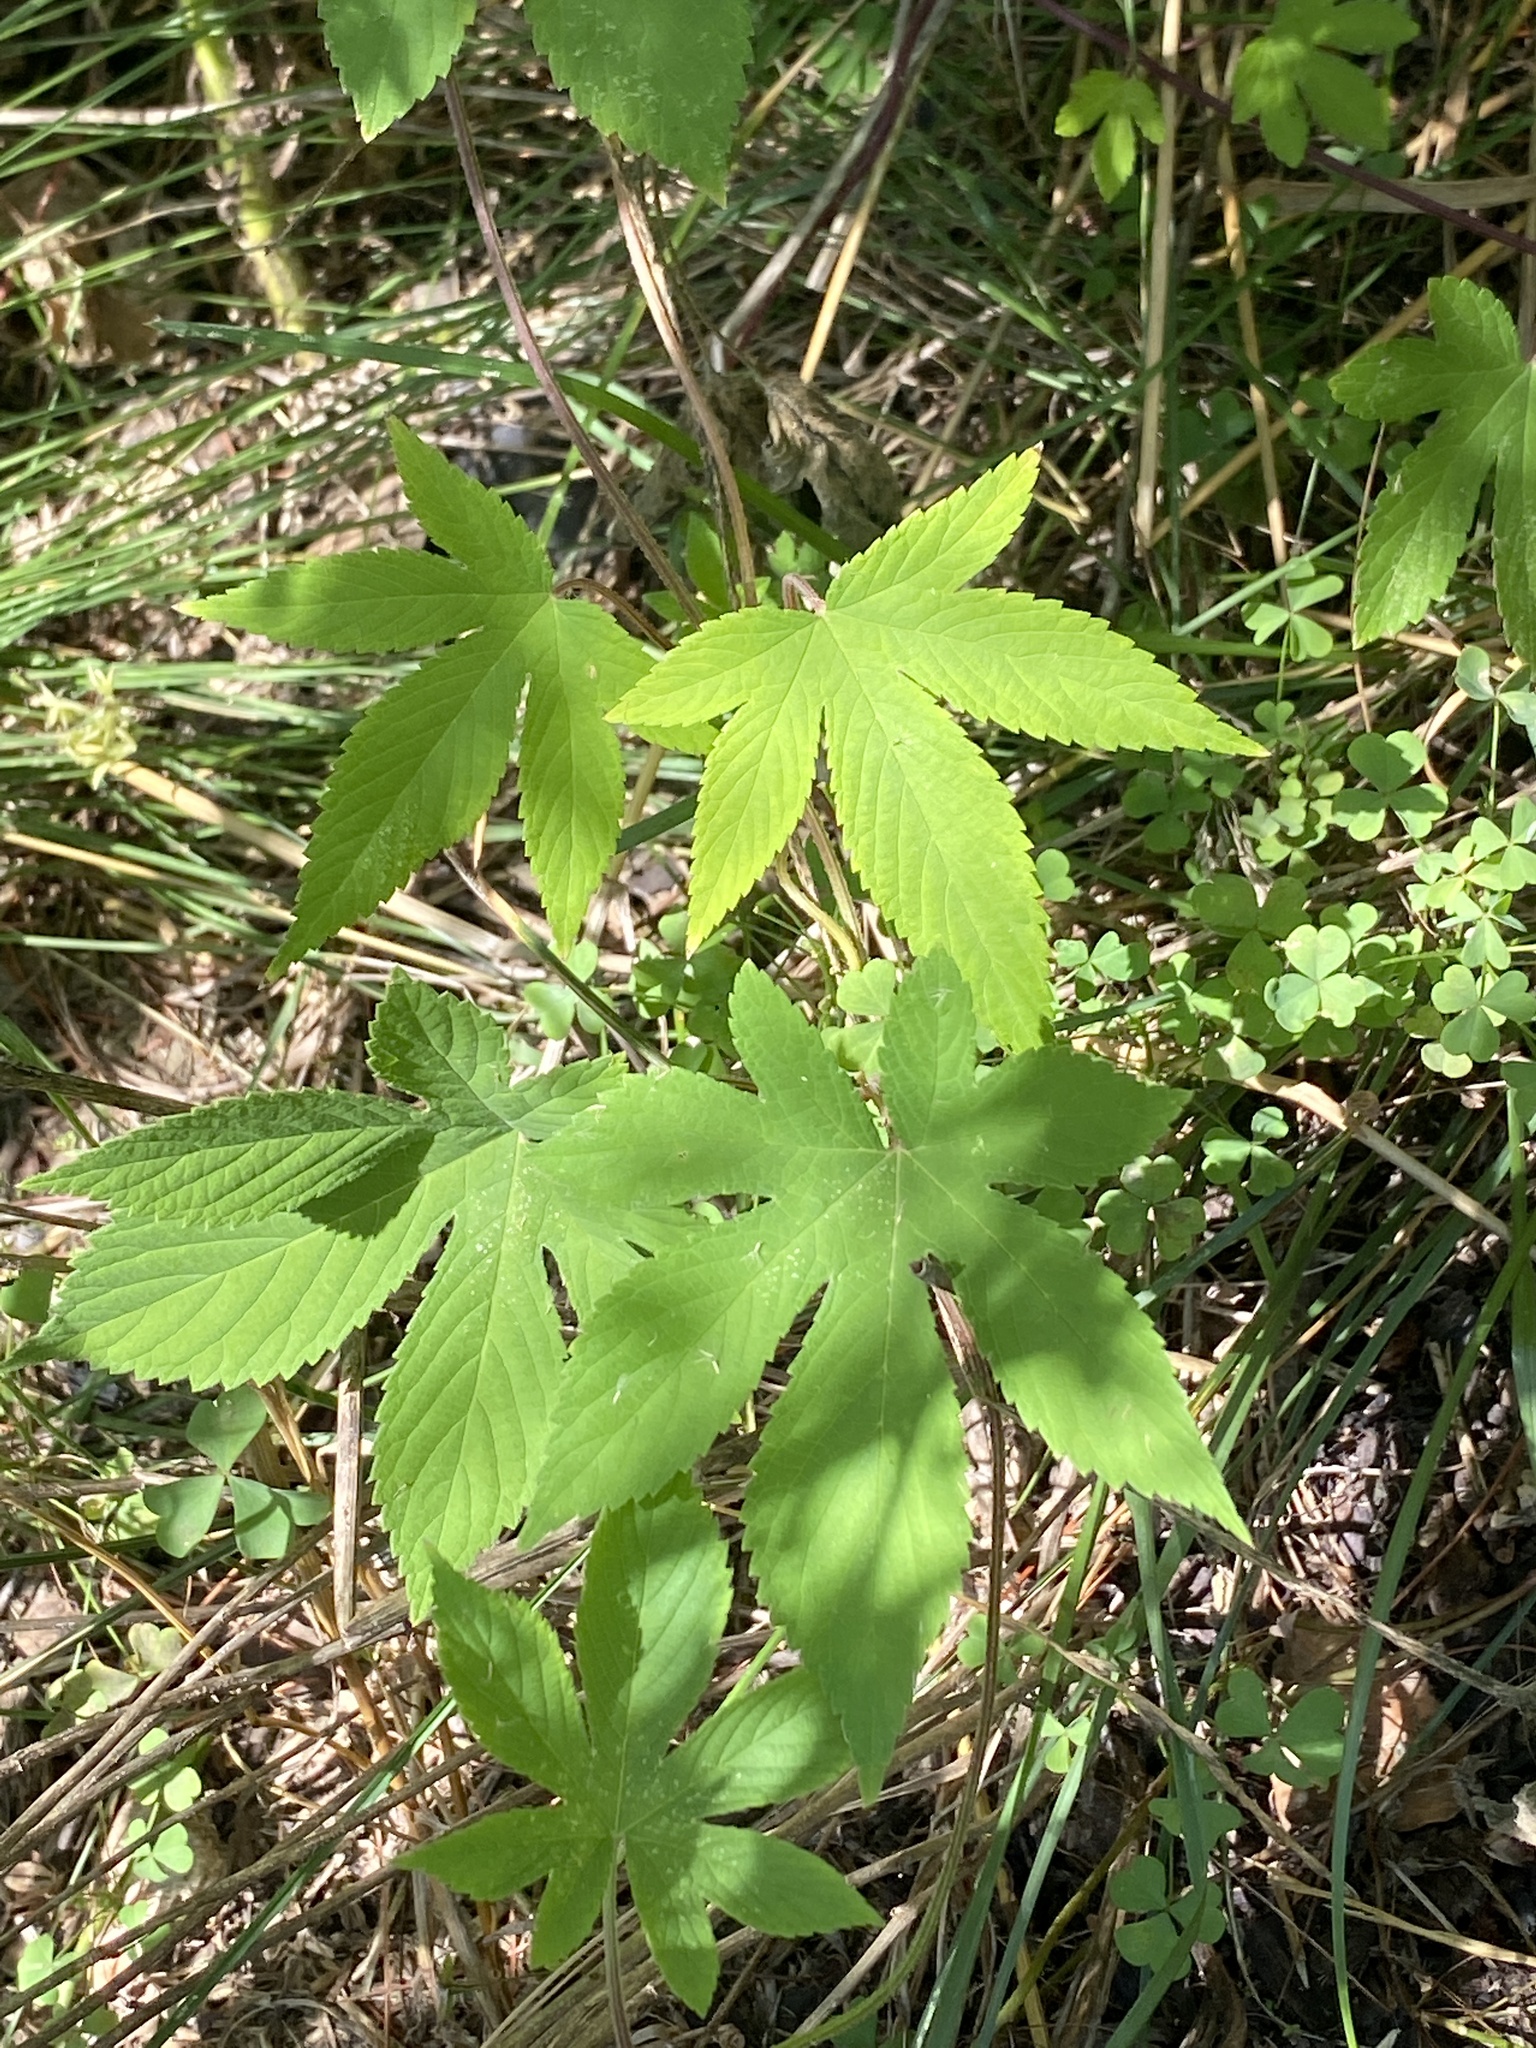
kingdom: Plantae
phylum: Tracheophyta
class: Magnoliopsida
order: Rosales
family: Cannabaceae
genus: Humulus
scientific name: Humulus scandens
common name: Japanese hop
